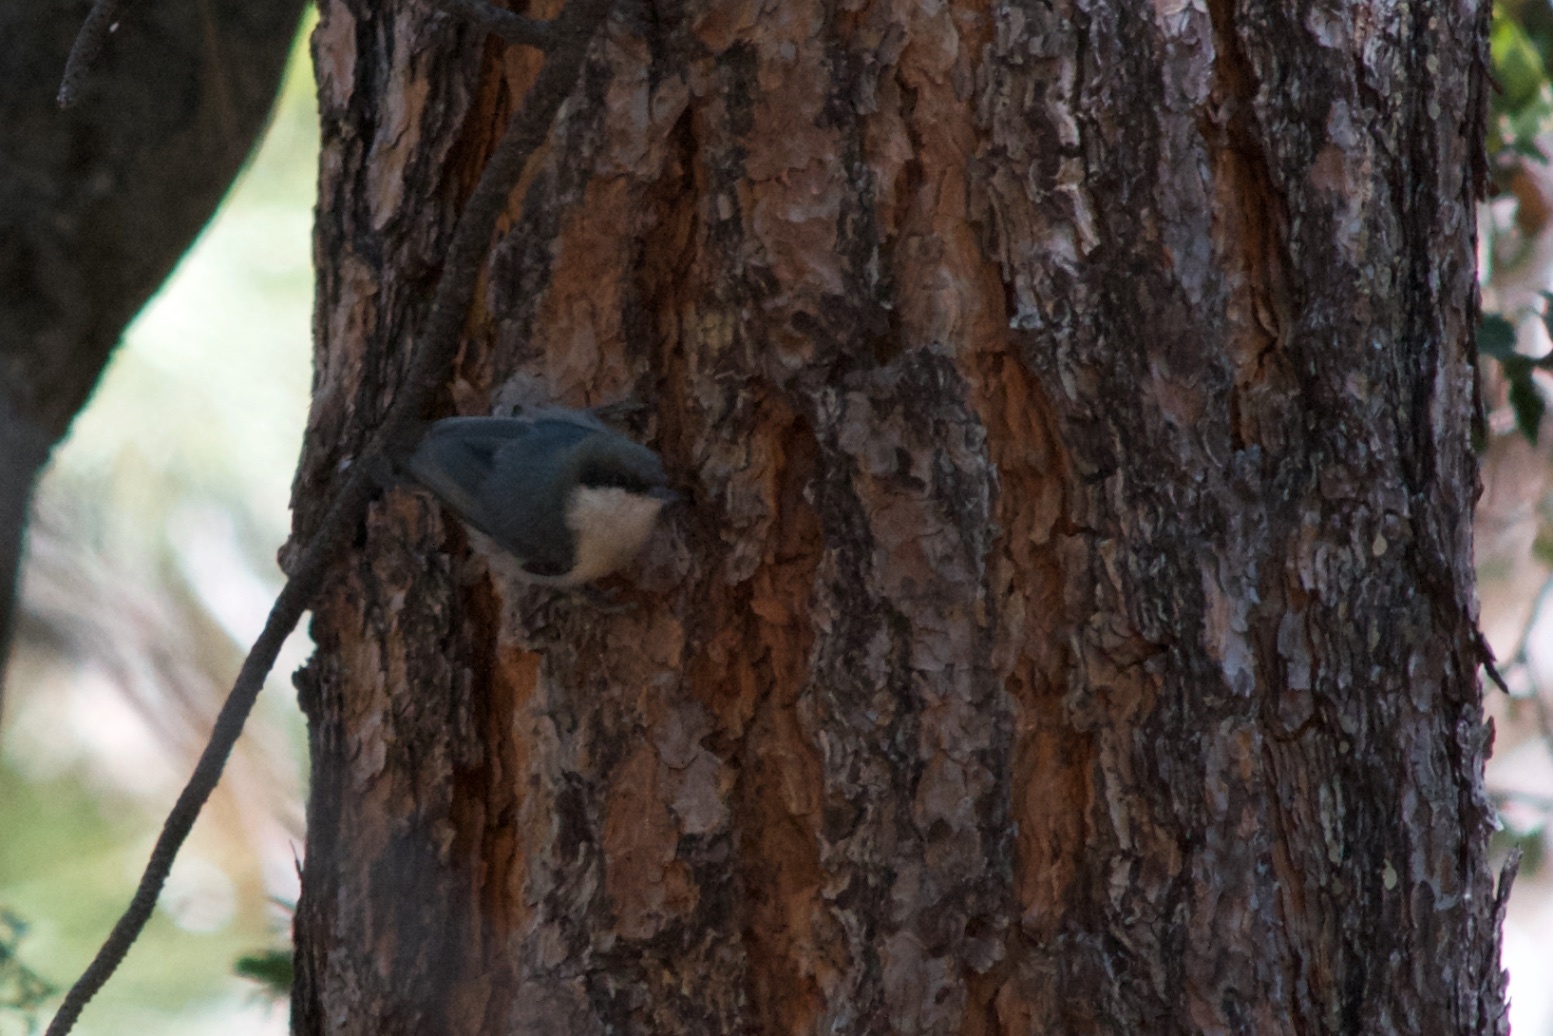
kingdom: Animalia
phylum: Chordata
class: Aves
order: Passeriformes
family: Sittidae
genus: Sitta
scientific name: Sitta pygmaea
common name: Pygmy nuthatch
